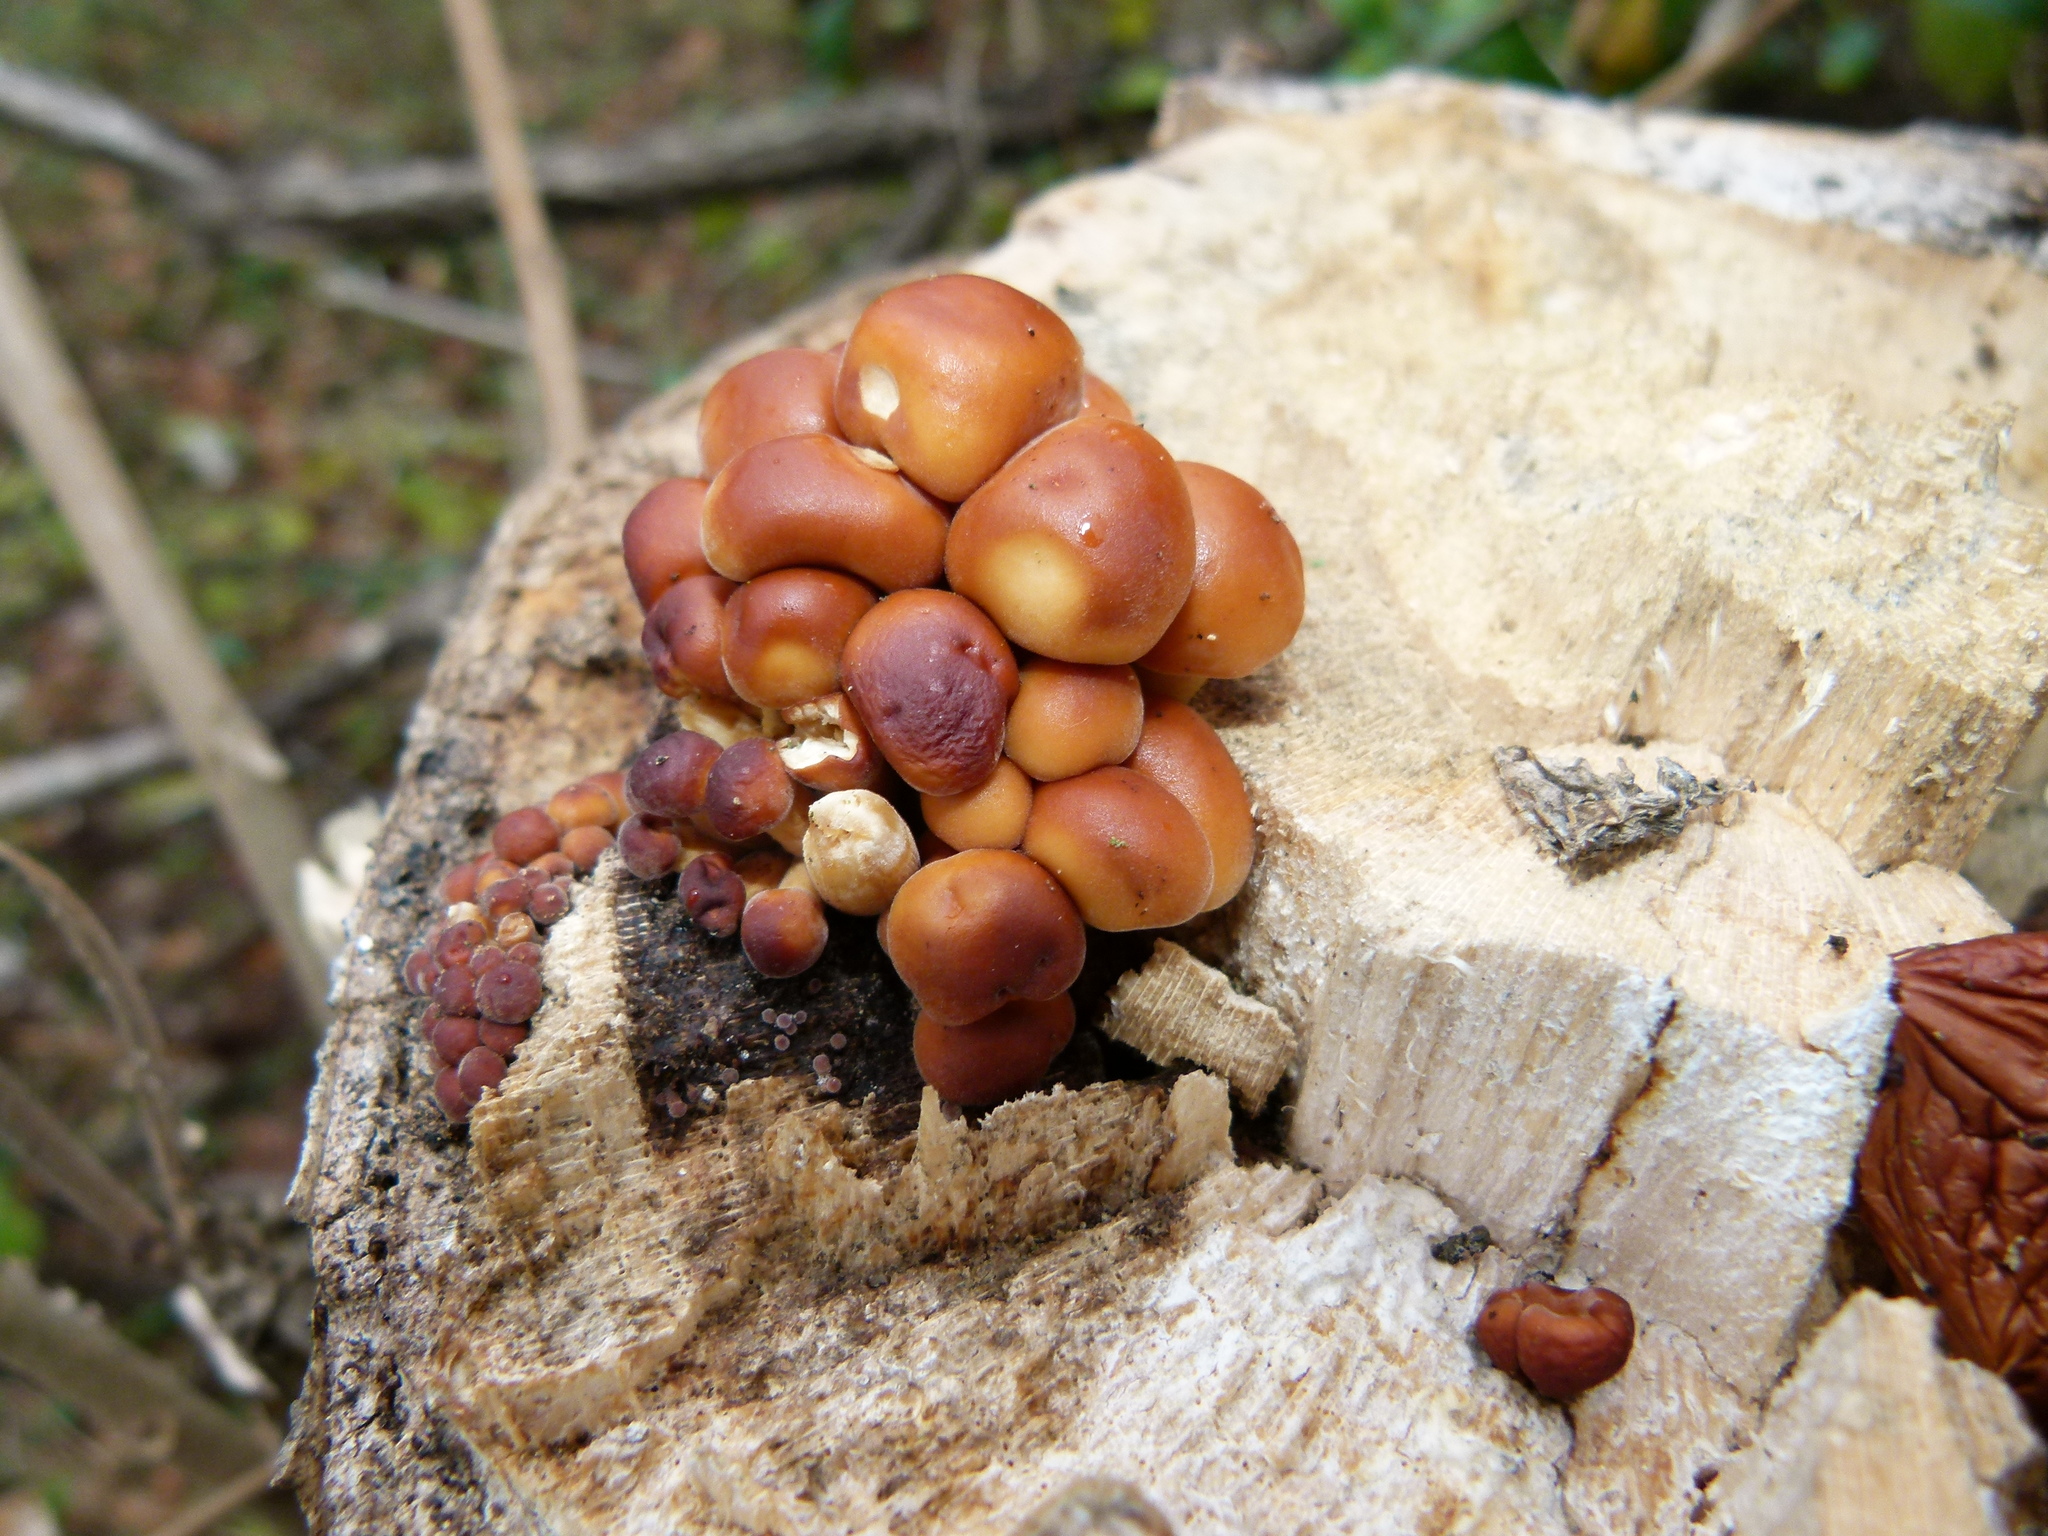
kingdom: Fungi
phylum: Basidiomycota
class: Agaricomycetes
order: Agaricales
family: Physalacriaceae
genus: Flammulina
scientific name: Flammulina velutipes
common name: Velvet shank
